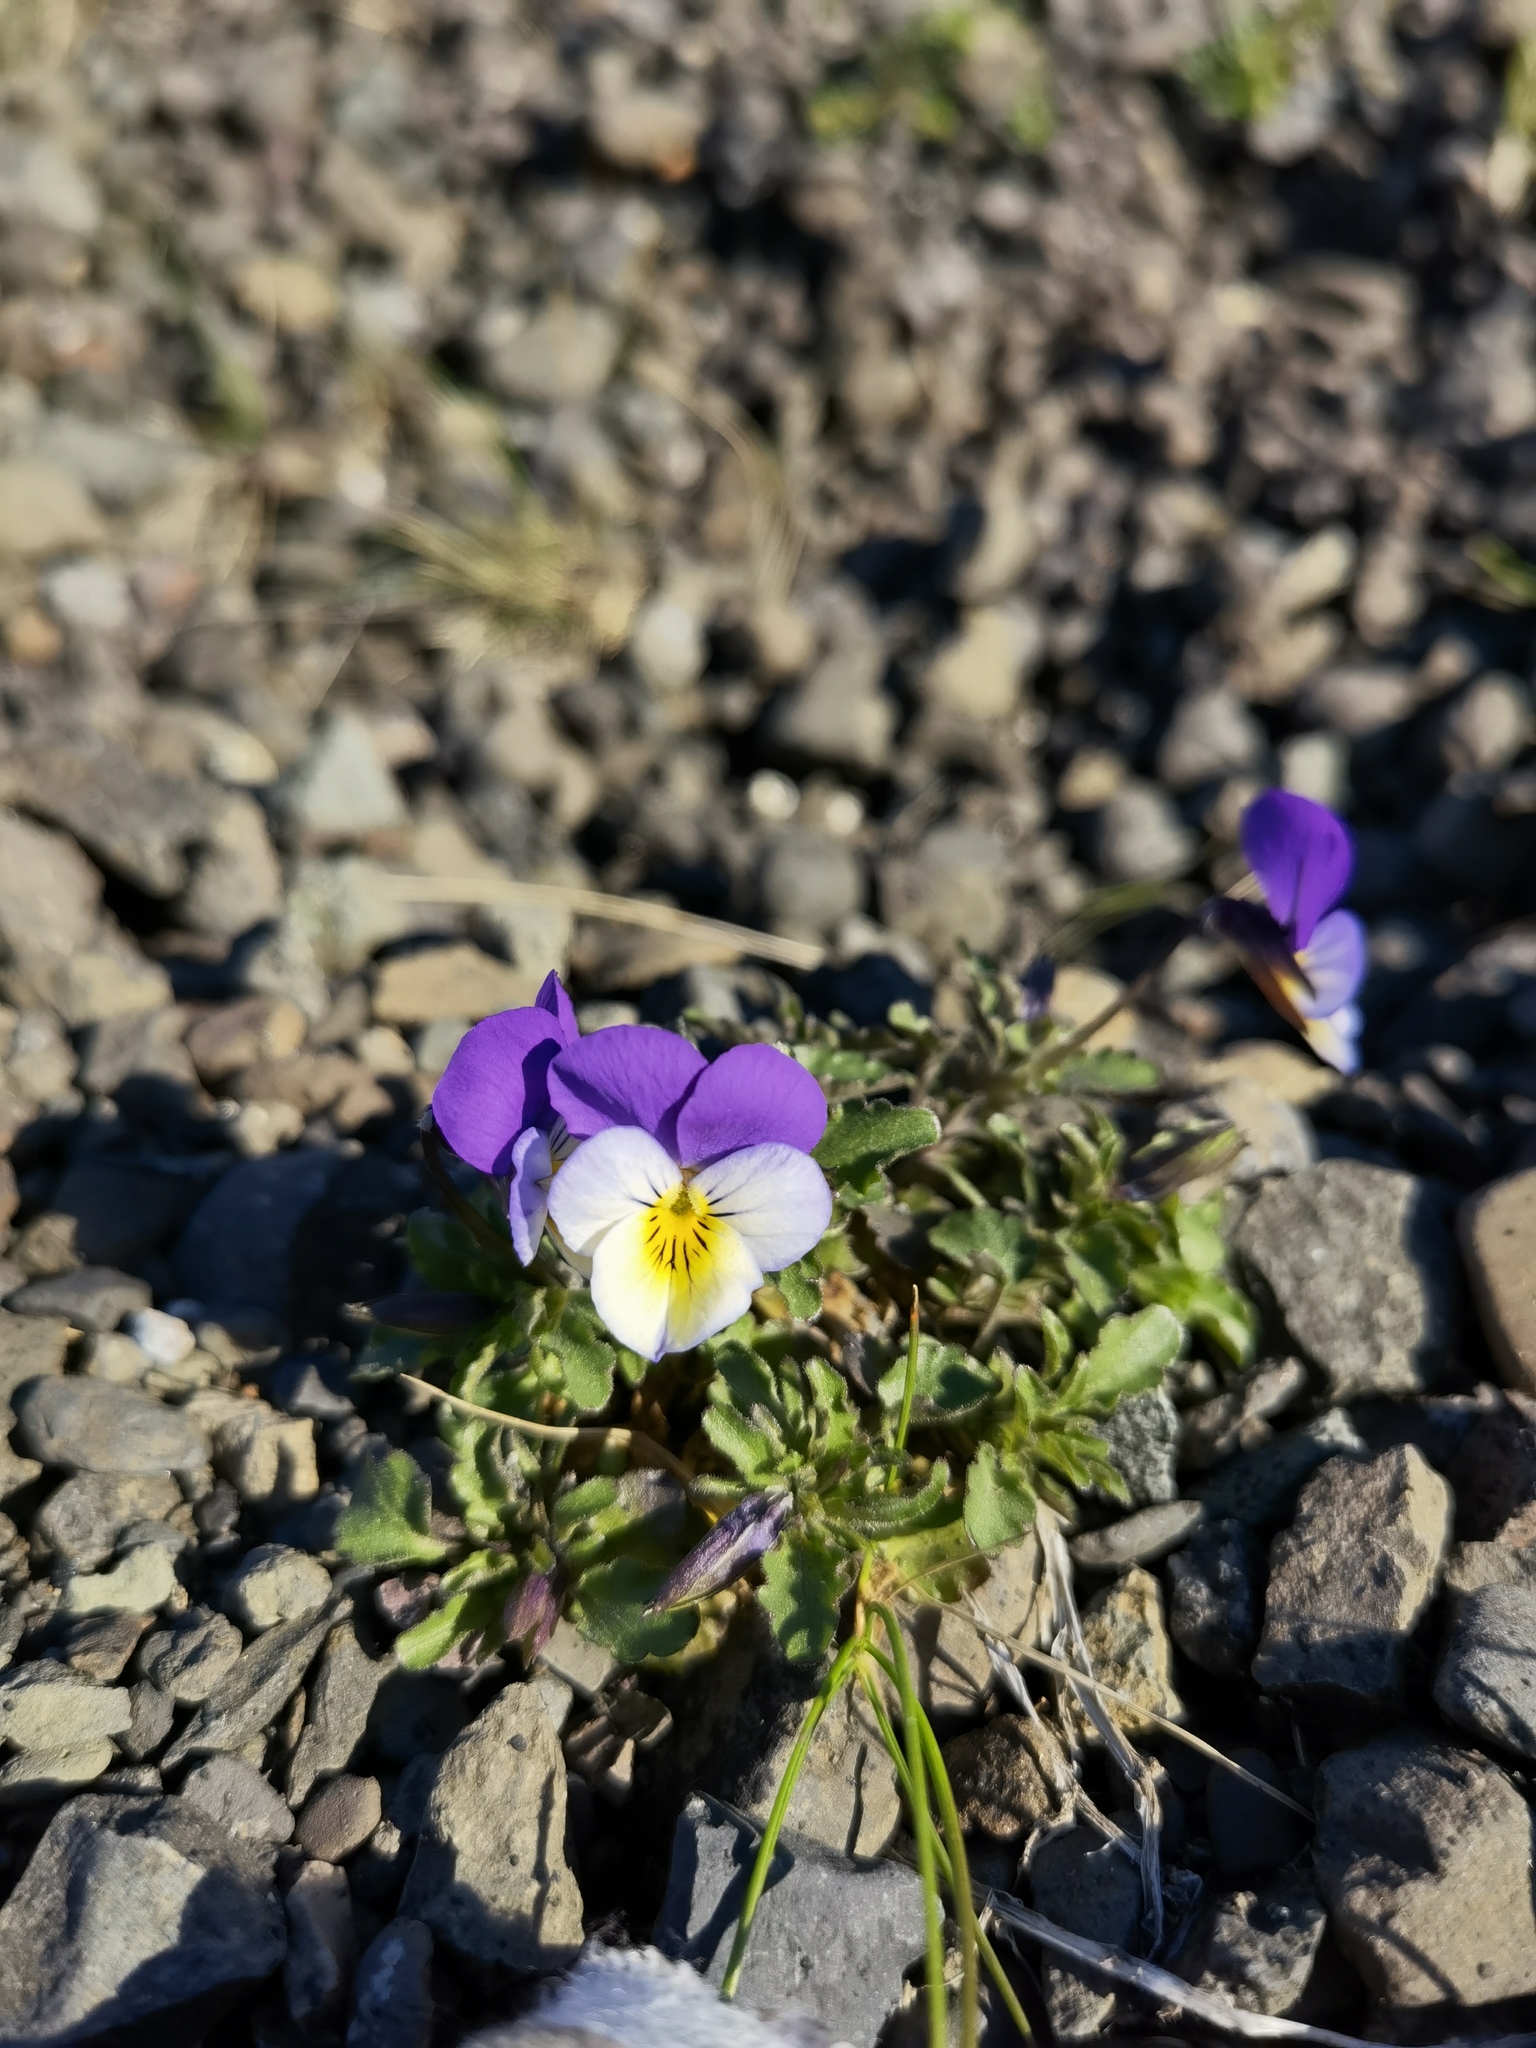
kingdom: Plantae
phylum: Tracheophyta
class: Magnoliopsida
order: Malpighiales
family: Violaceae
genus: Viola
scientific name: Viola tricolor
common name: Pansy
